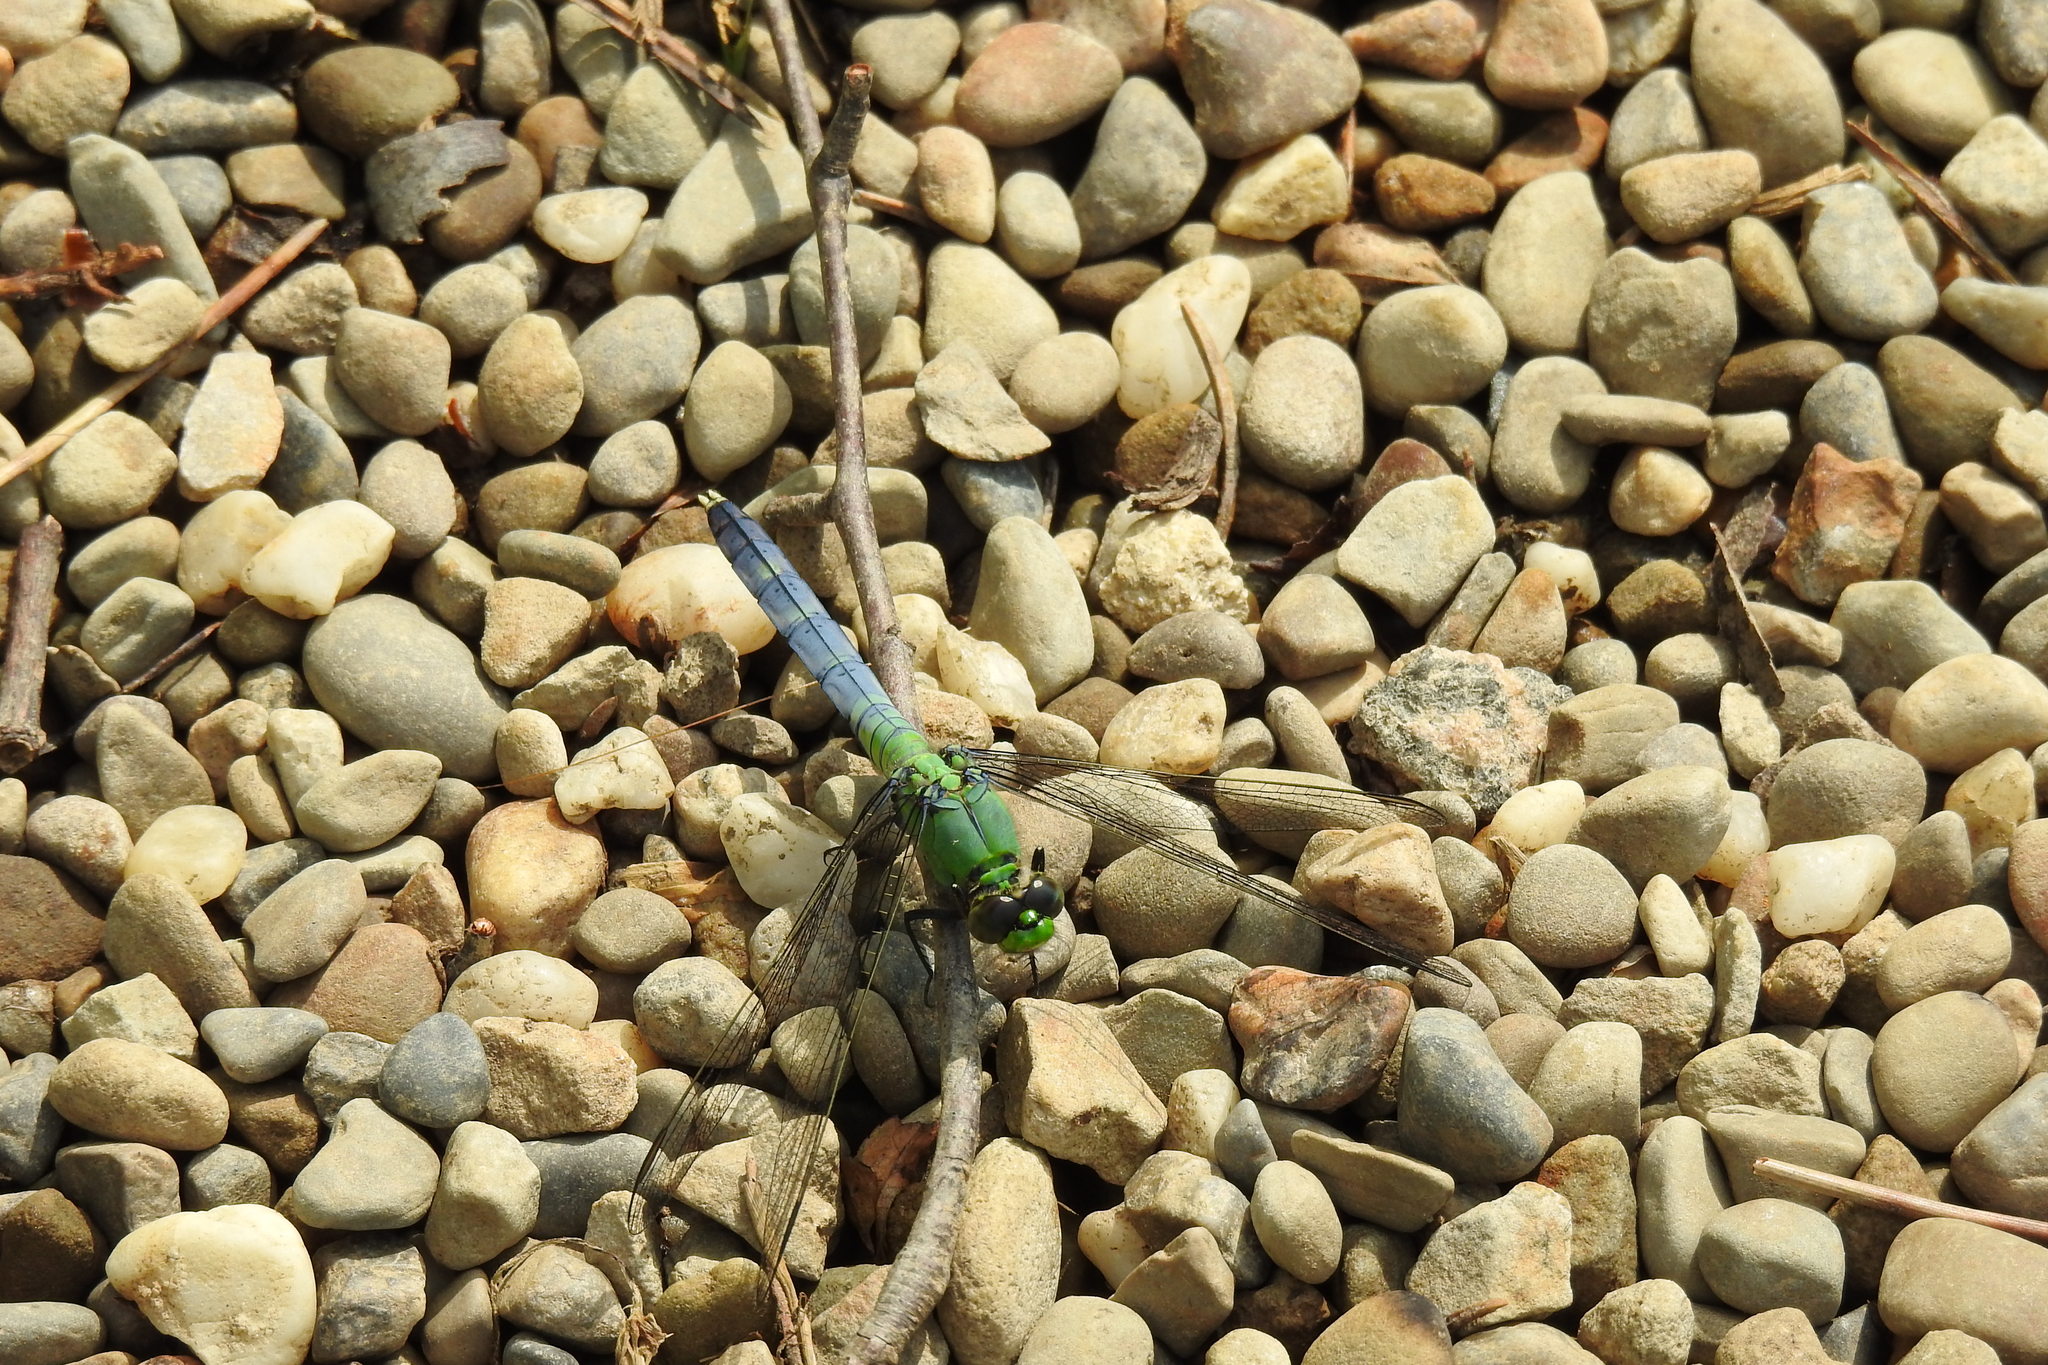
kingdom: Animalia
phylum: Arthropoda
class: Insecta
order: Odonata
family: Libellulidae
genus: Erythemis
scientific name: Erythemis simplicicollis
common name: Eastern pondhawk
